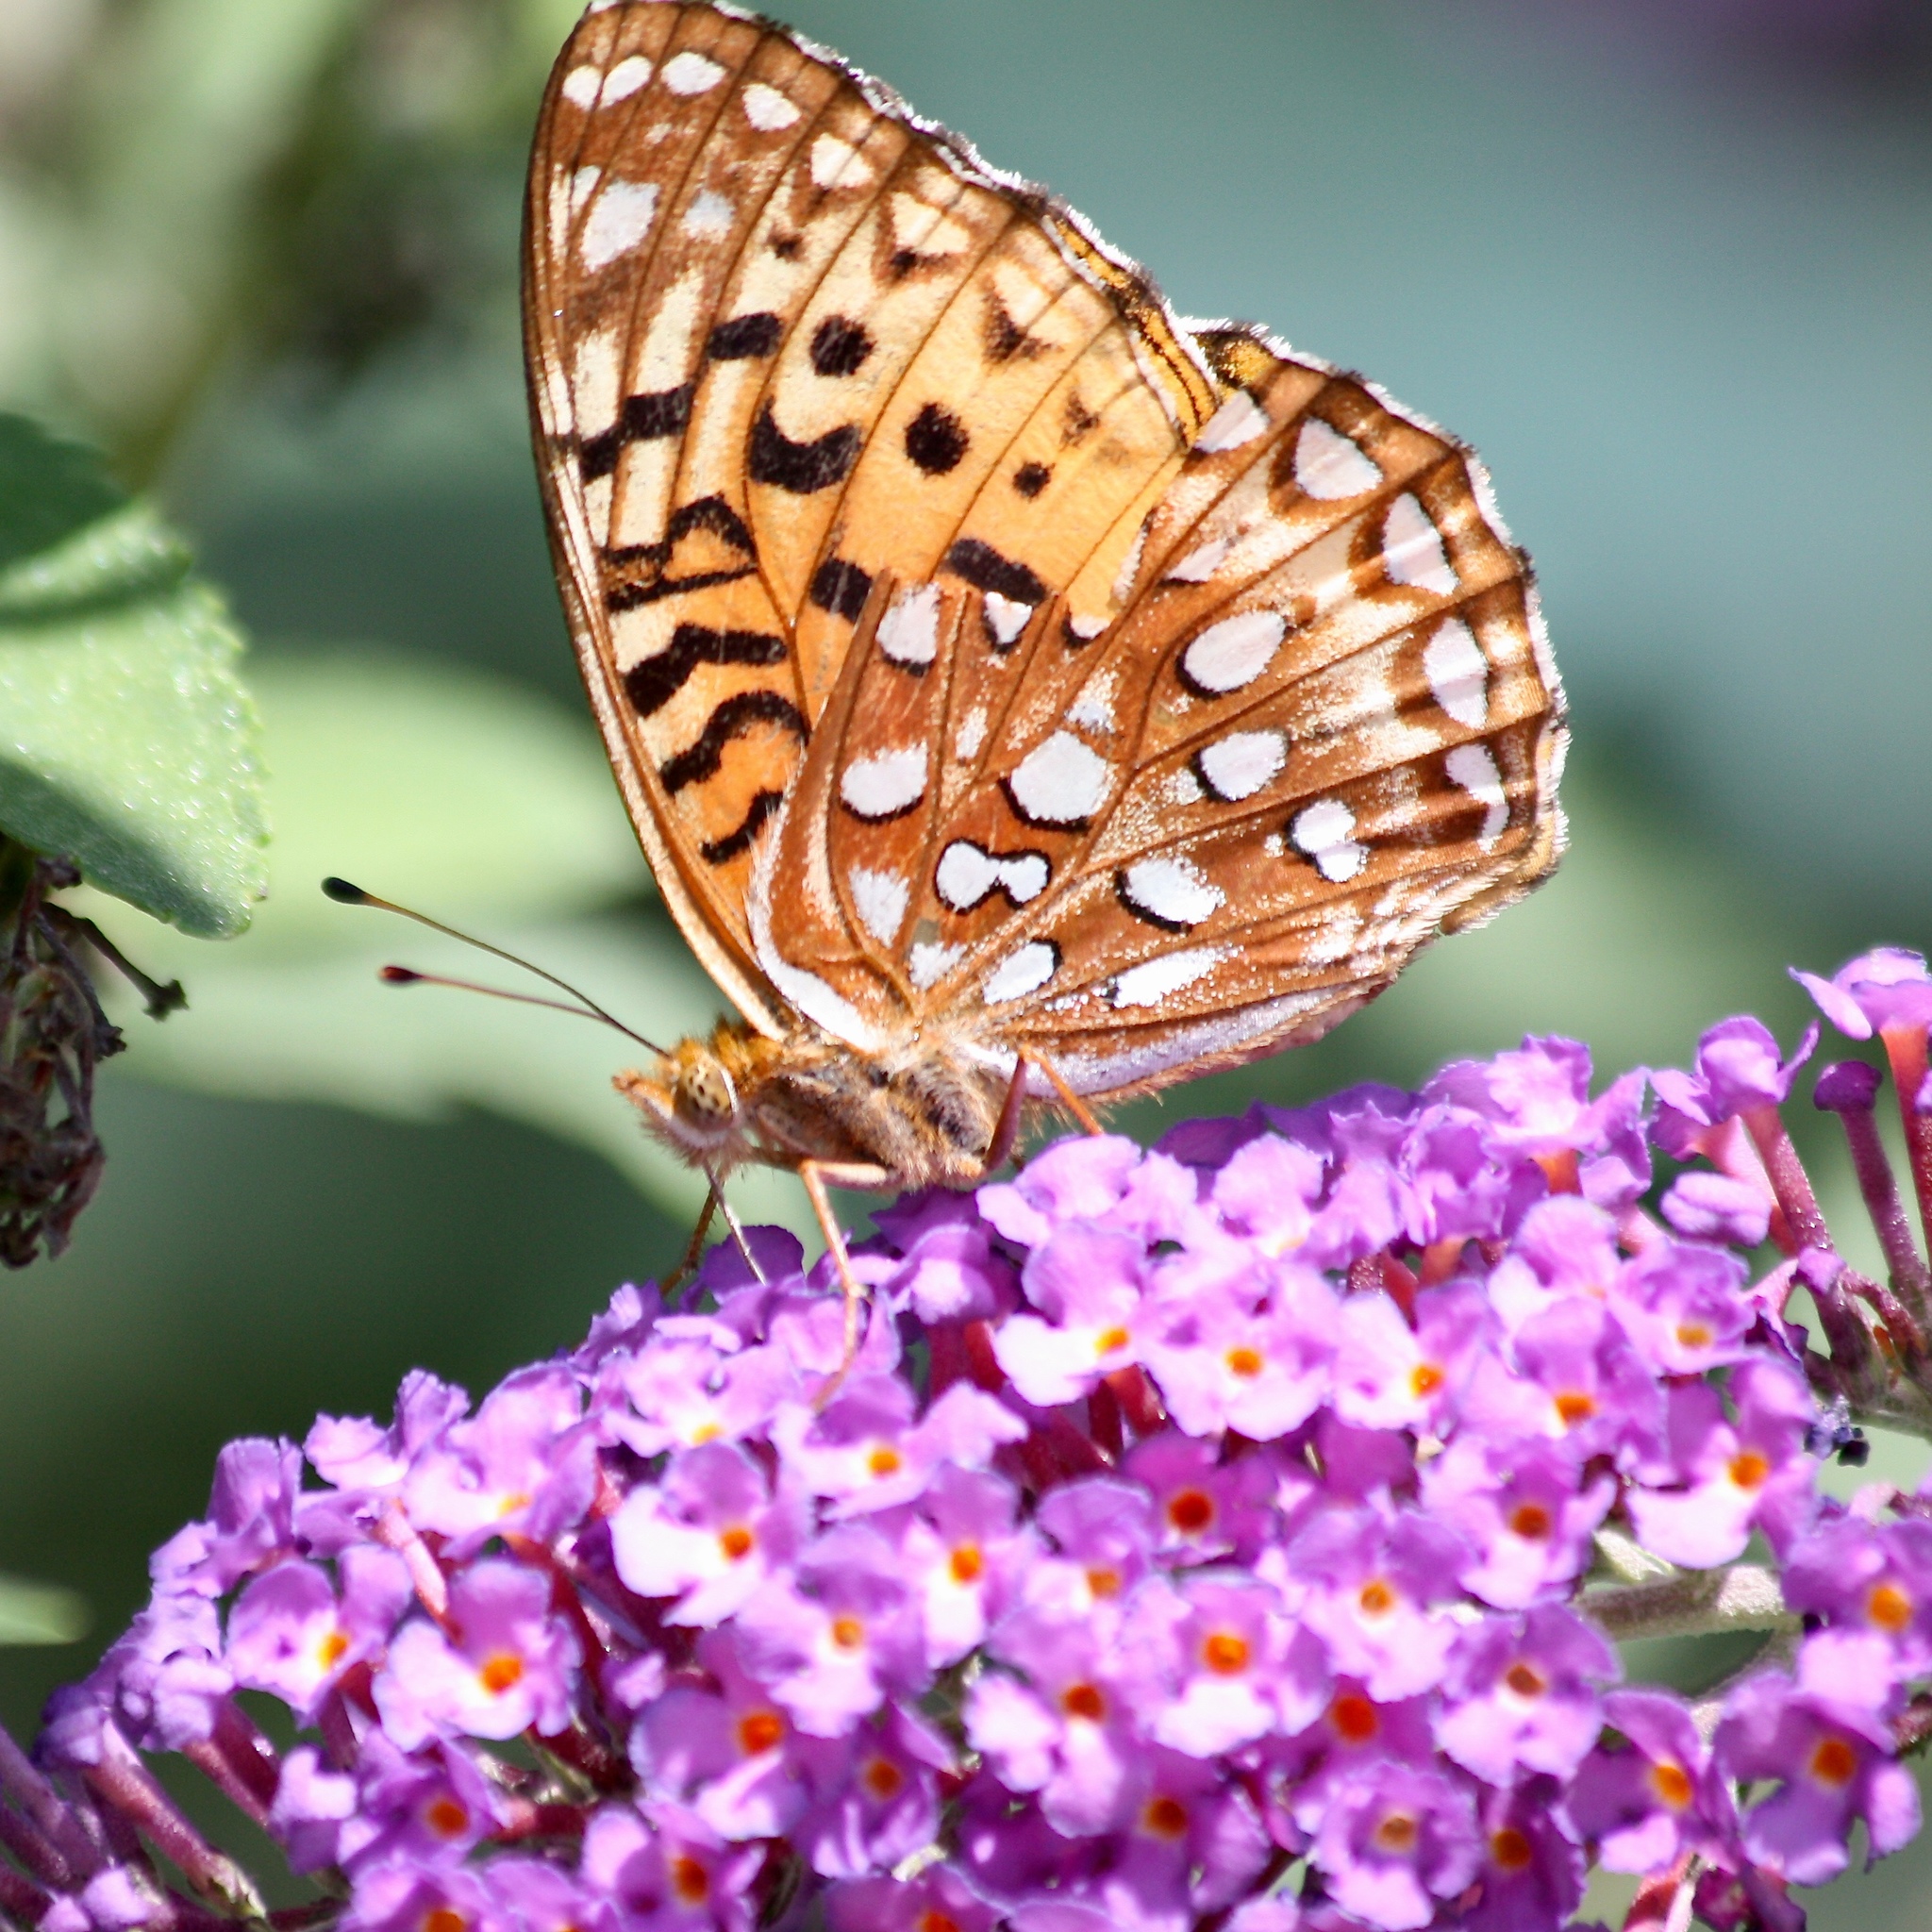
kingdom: Animalia
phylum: Arthropoda
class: Insecta
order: Lepidoptera
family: Nymphalidae
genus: Speyeria
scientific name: Speyeria aphrodite
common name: Aphrodite friitllary
